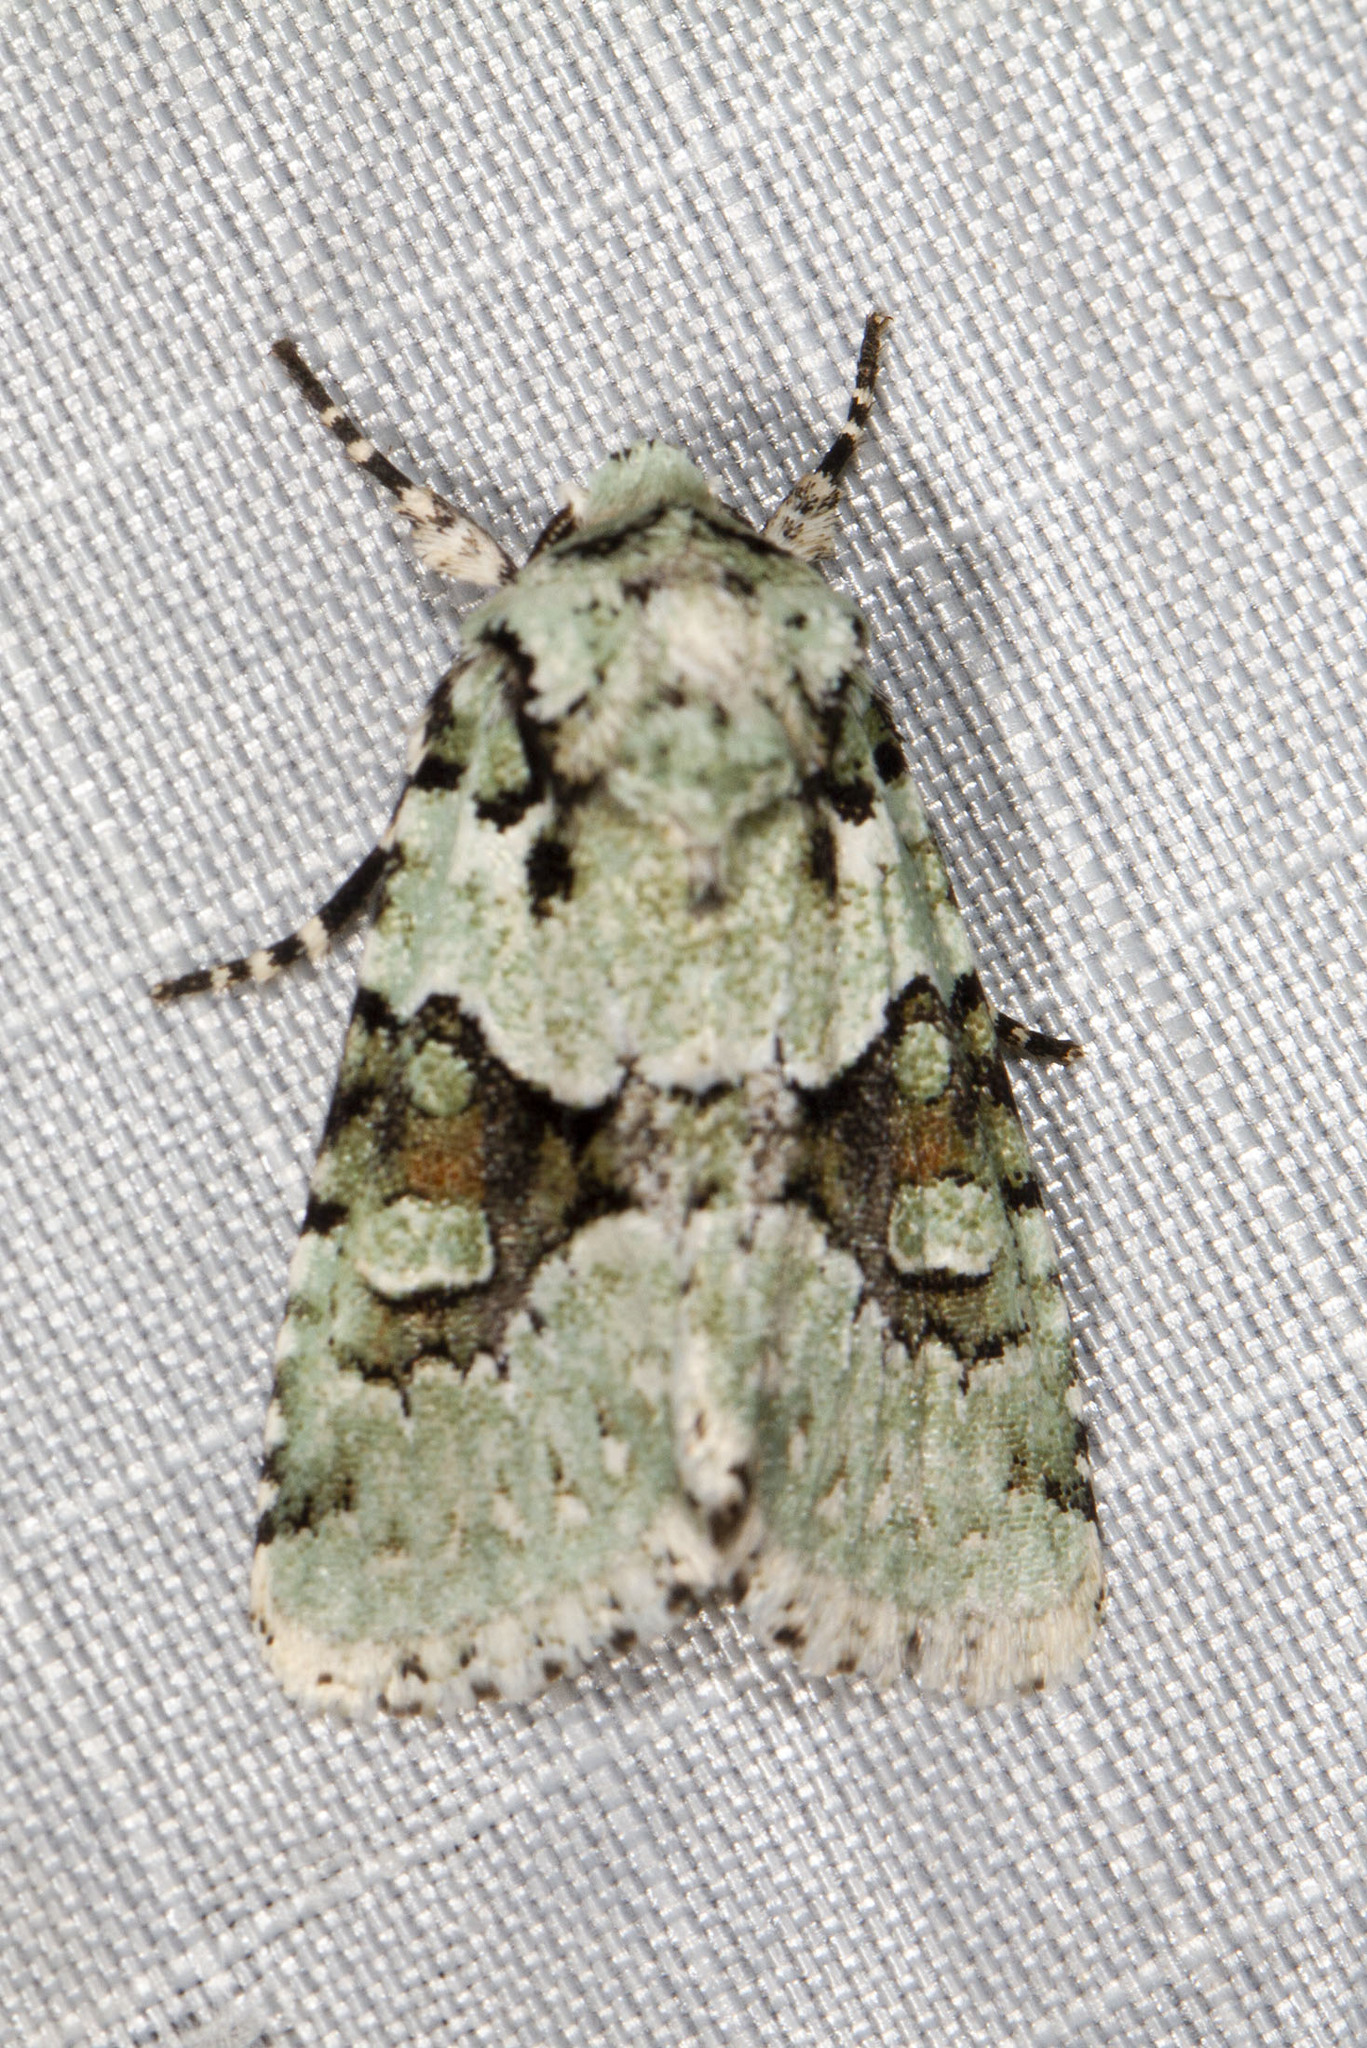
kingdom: Animalia
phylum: Arthropoda
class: Insecta
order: Lepidoptera
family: Noctuidae
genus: Lacinipolia
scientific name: Lacinipolia implicata
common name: Implicit arches
